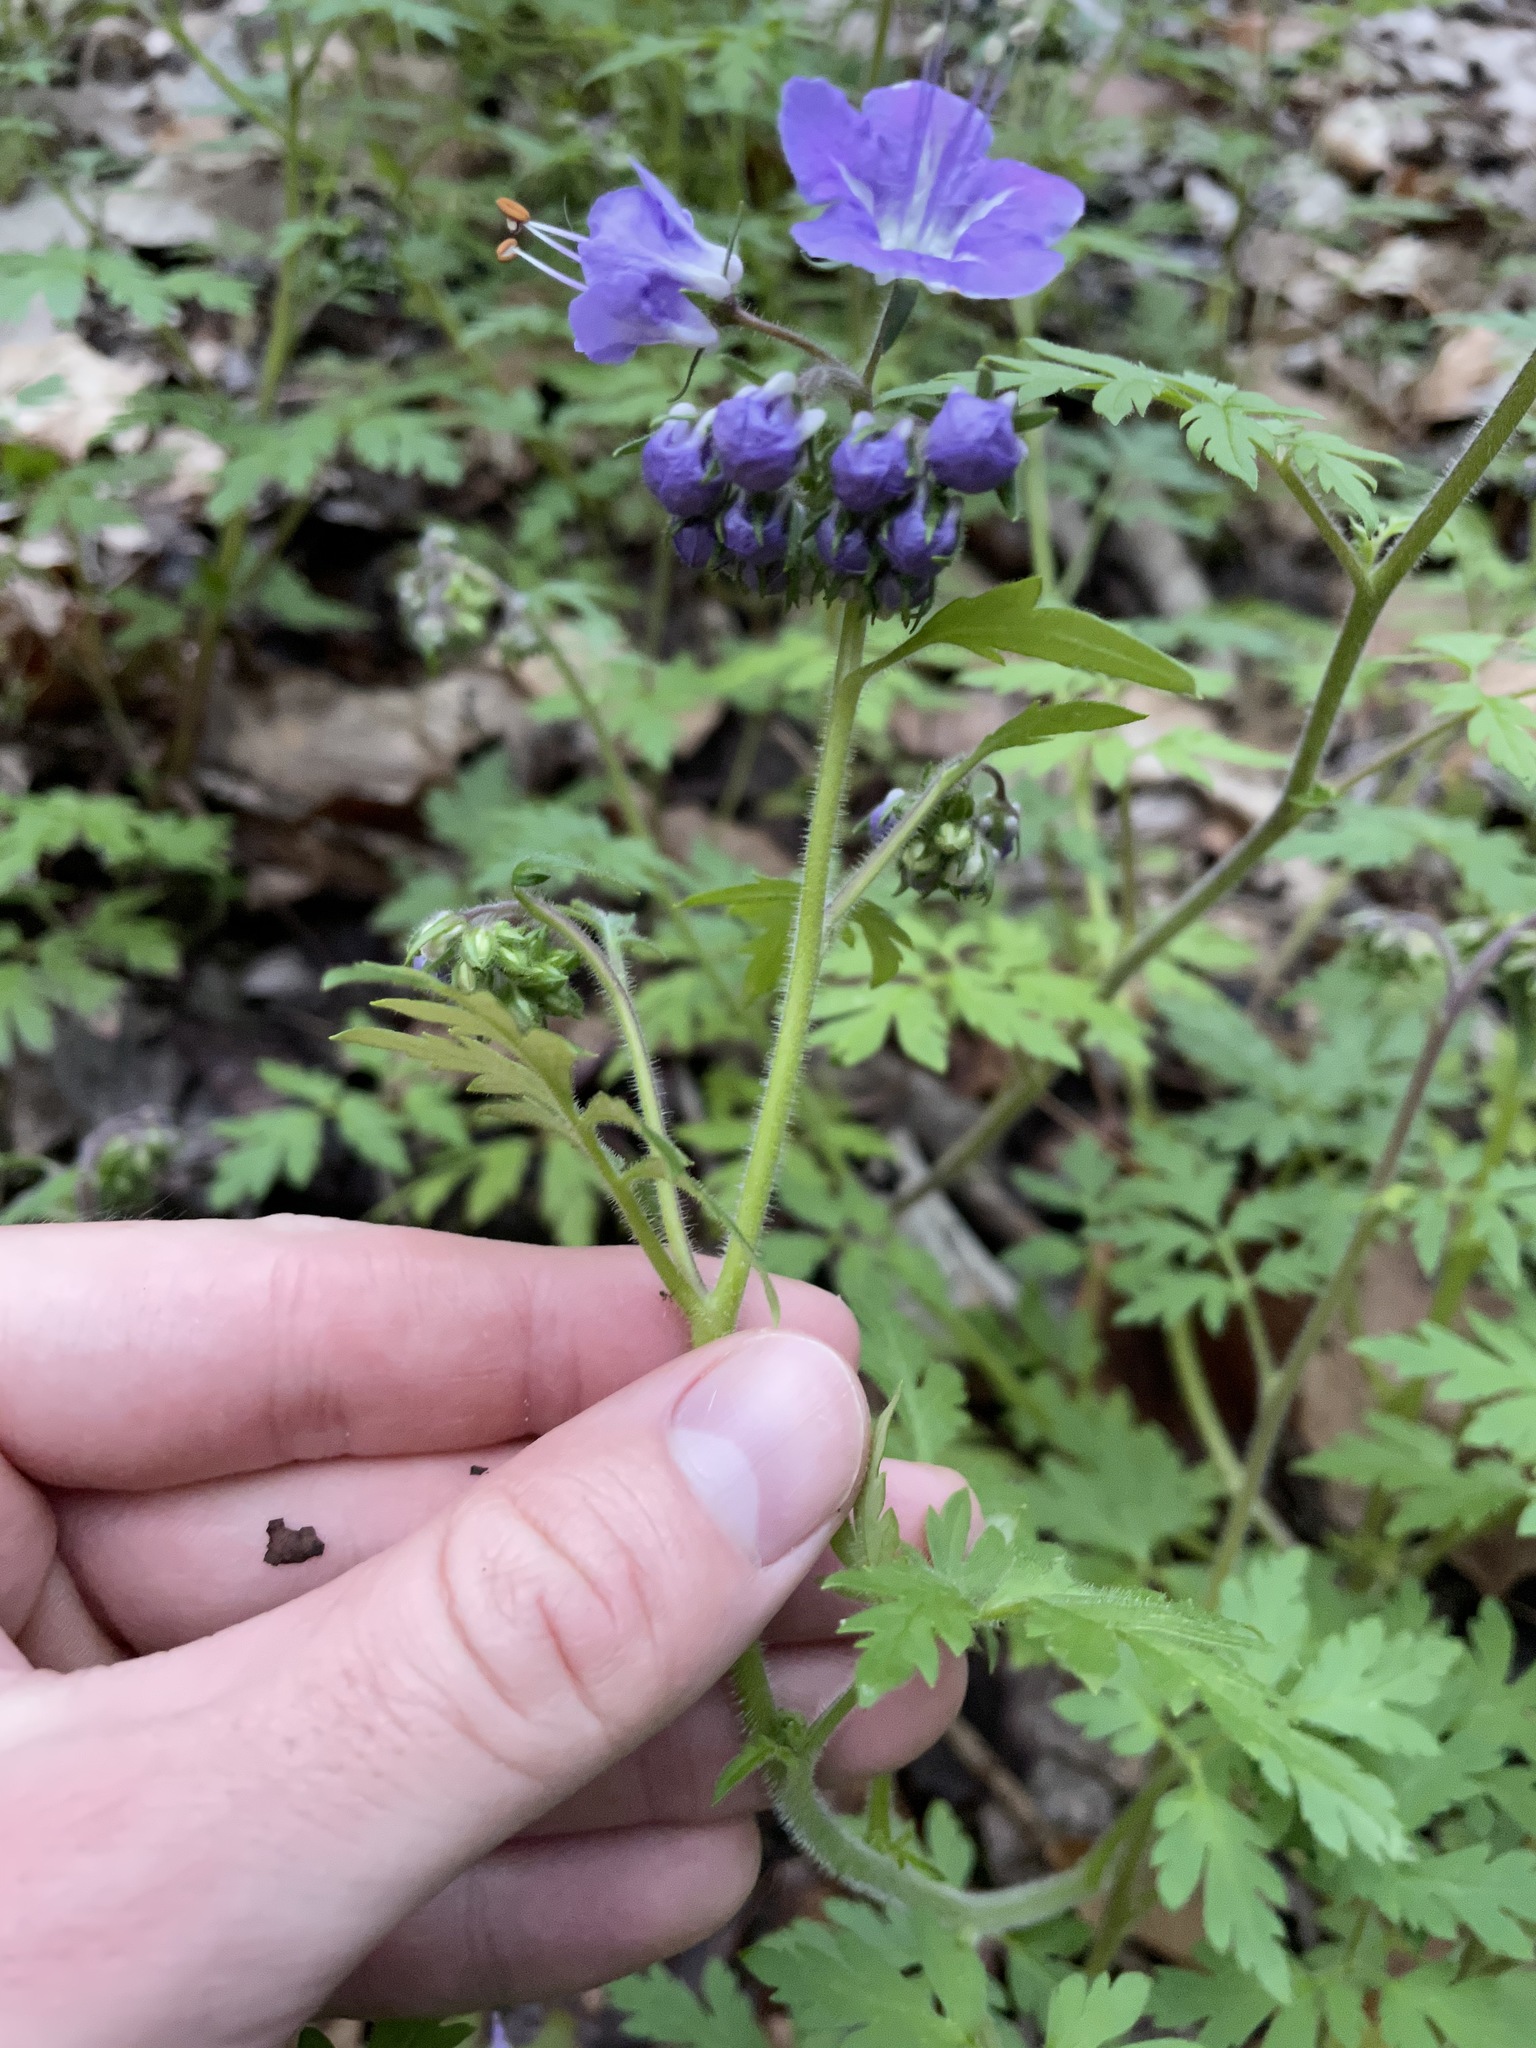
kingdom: Plantae
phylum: Tracheophyta
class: Magnoliopsida
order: Boraginales
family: Hydrophyllaceae
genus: Phacelia
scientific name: Phacelia bipinnatifida
